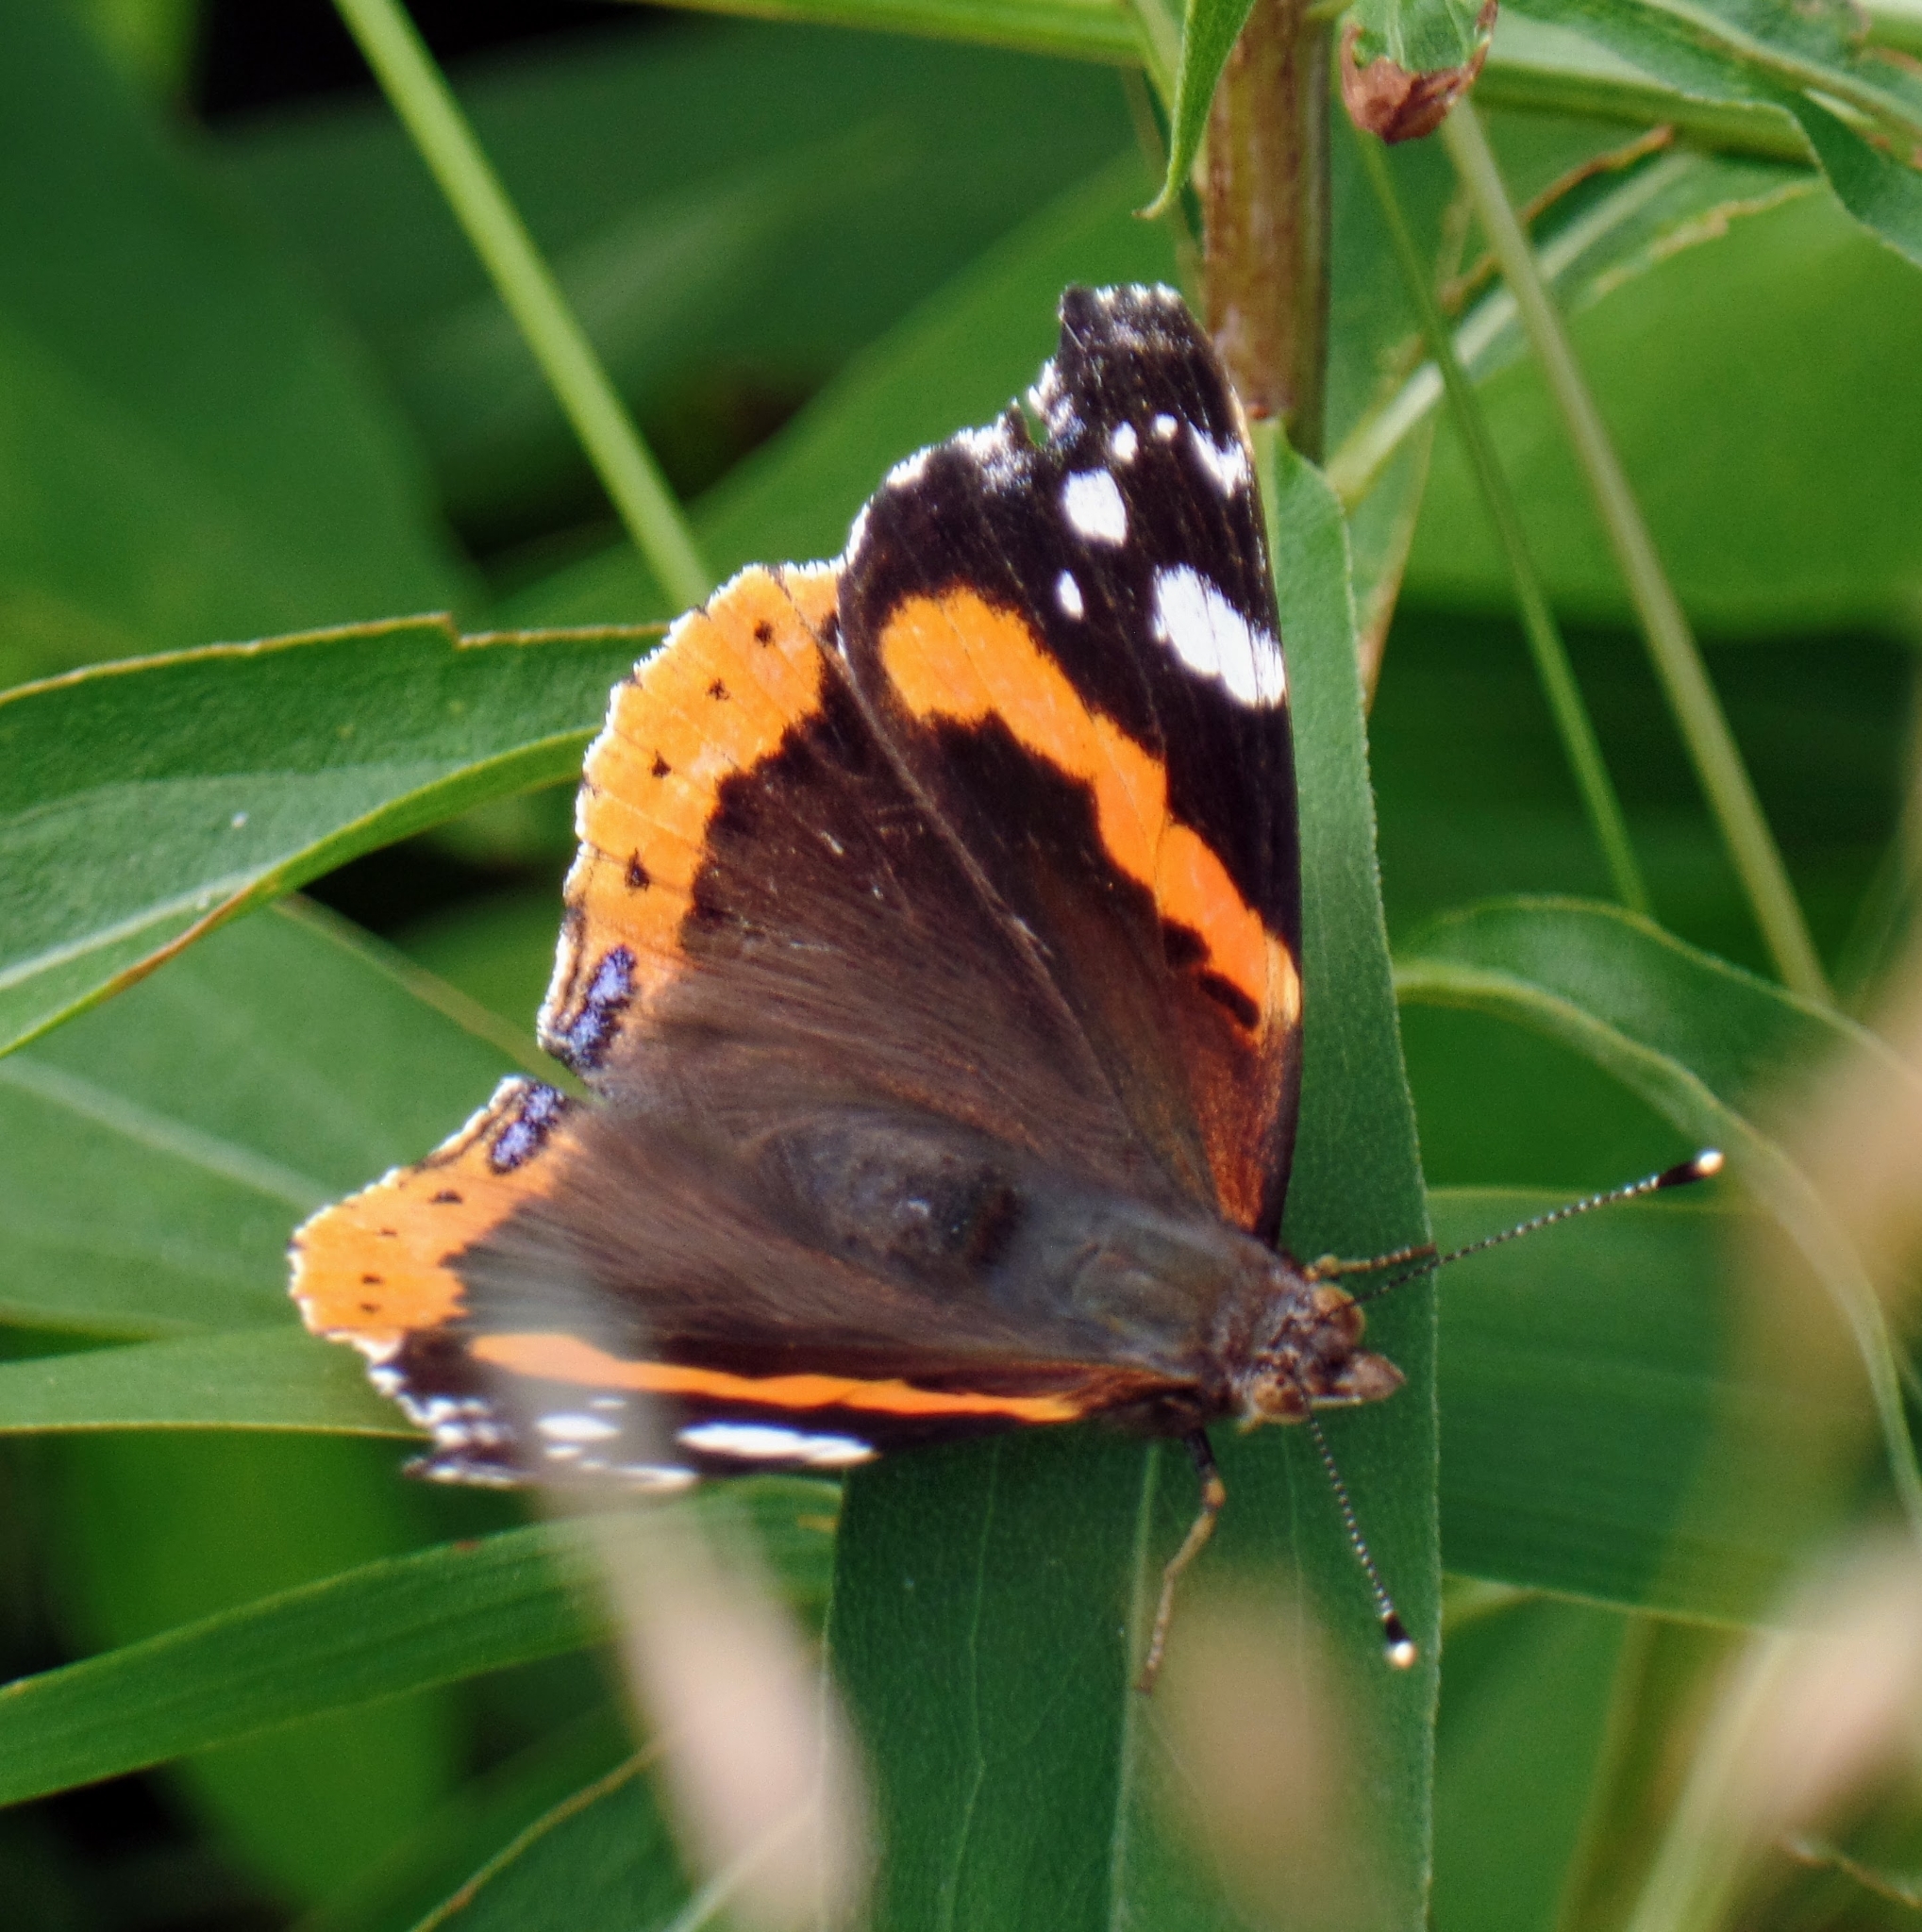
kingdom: Animalia
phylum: Arthropoda
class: Insecta
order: Lepidoptera
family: Nymphalidae
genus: Vanessa
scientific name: Vanessa atalanta
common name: Red admiral
